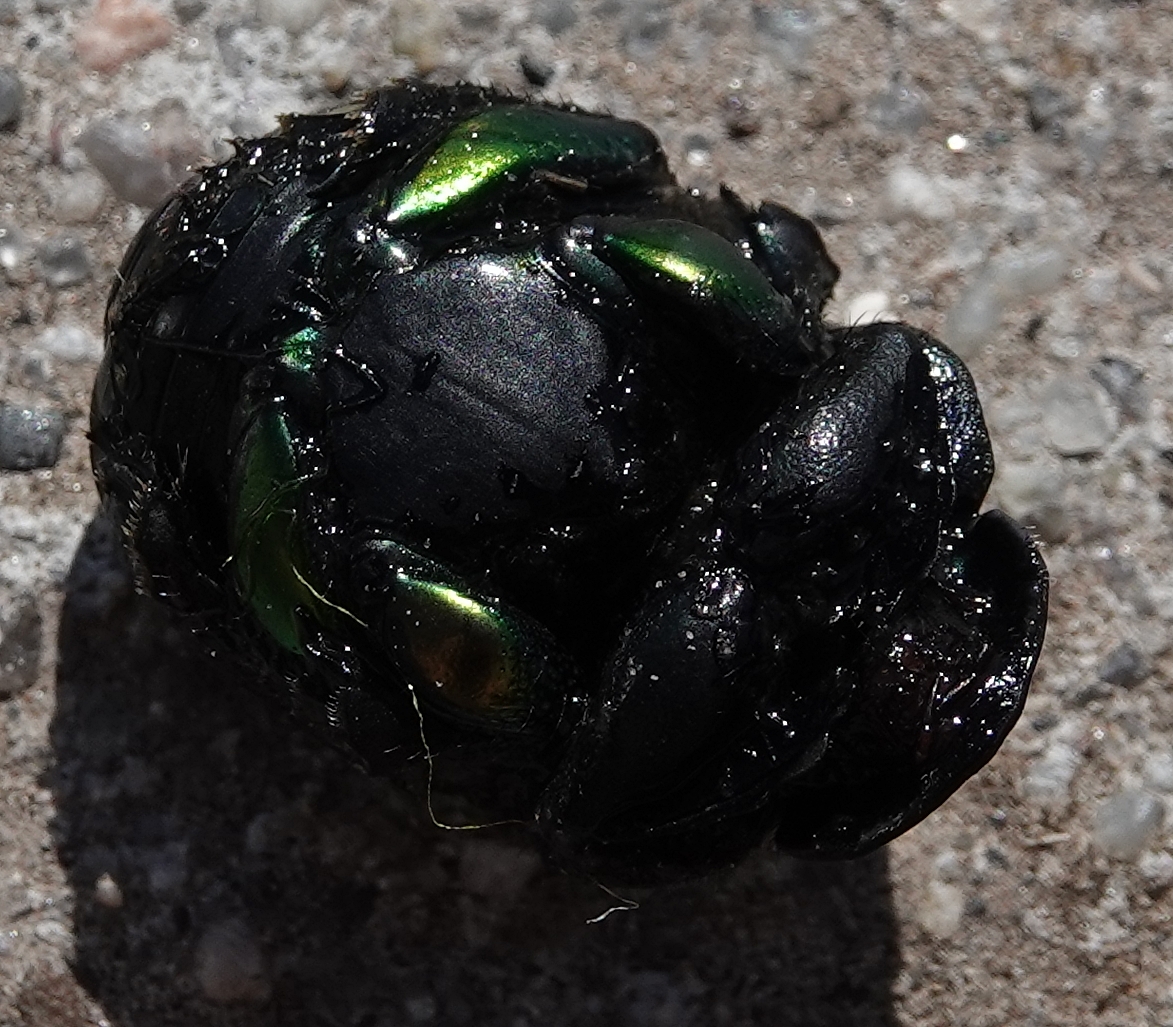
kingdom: Animalia
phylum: Arthropoda
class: Insecta
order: Coleoptera
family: Scarabaeidae
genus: Phanaeus
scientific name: Phanaeus vindex
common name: Rainbow scarab
